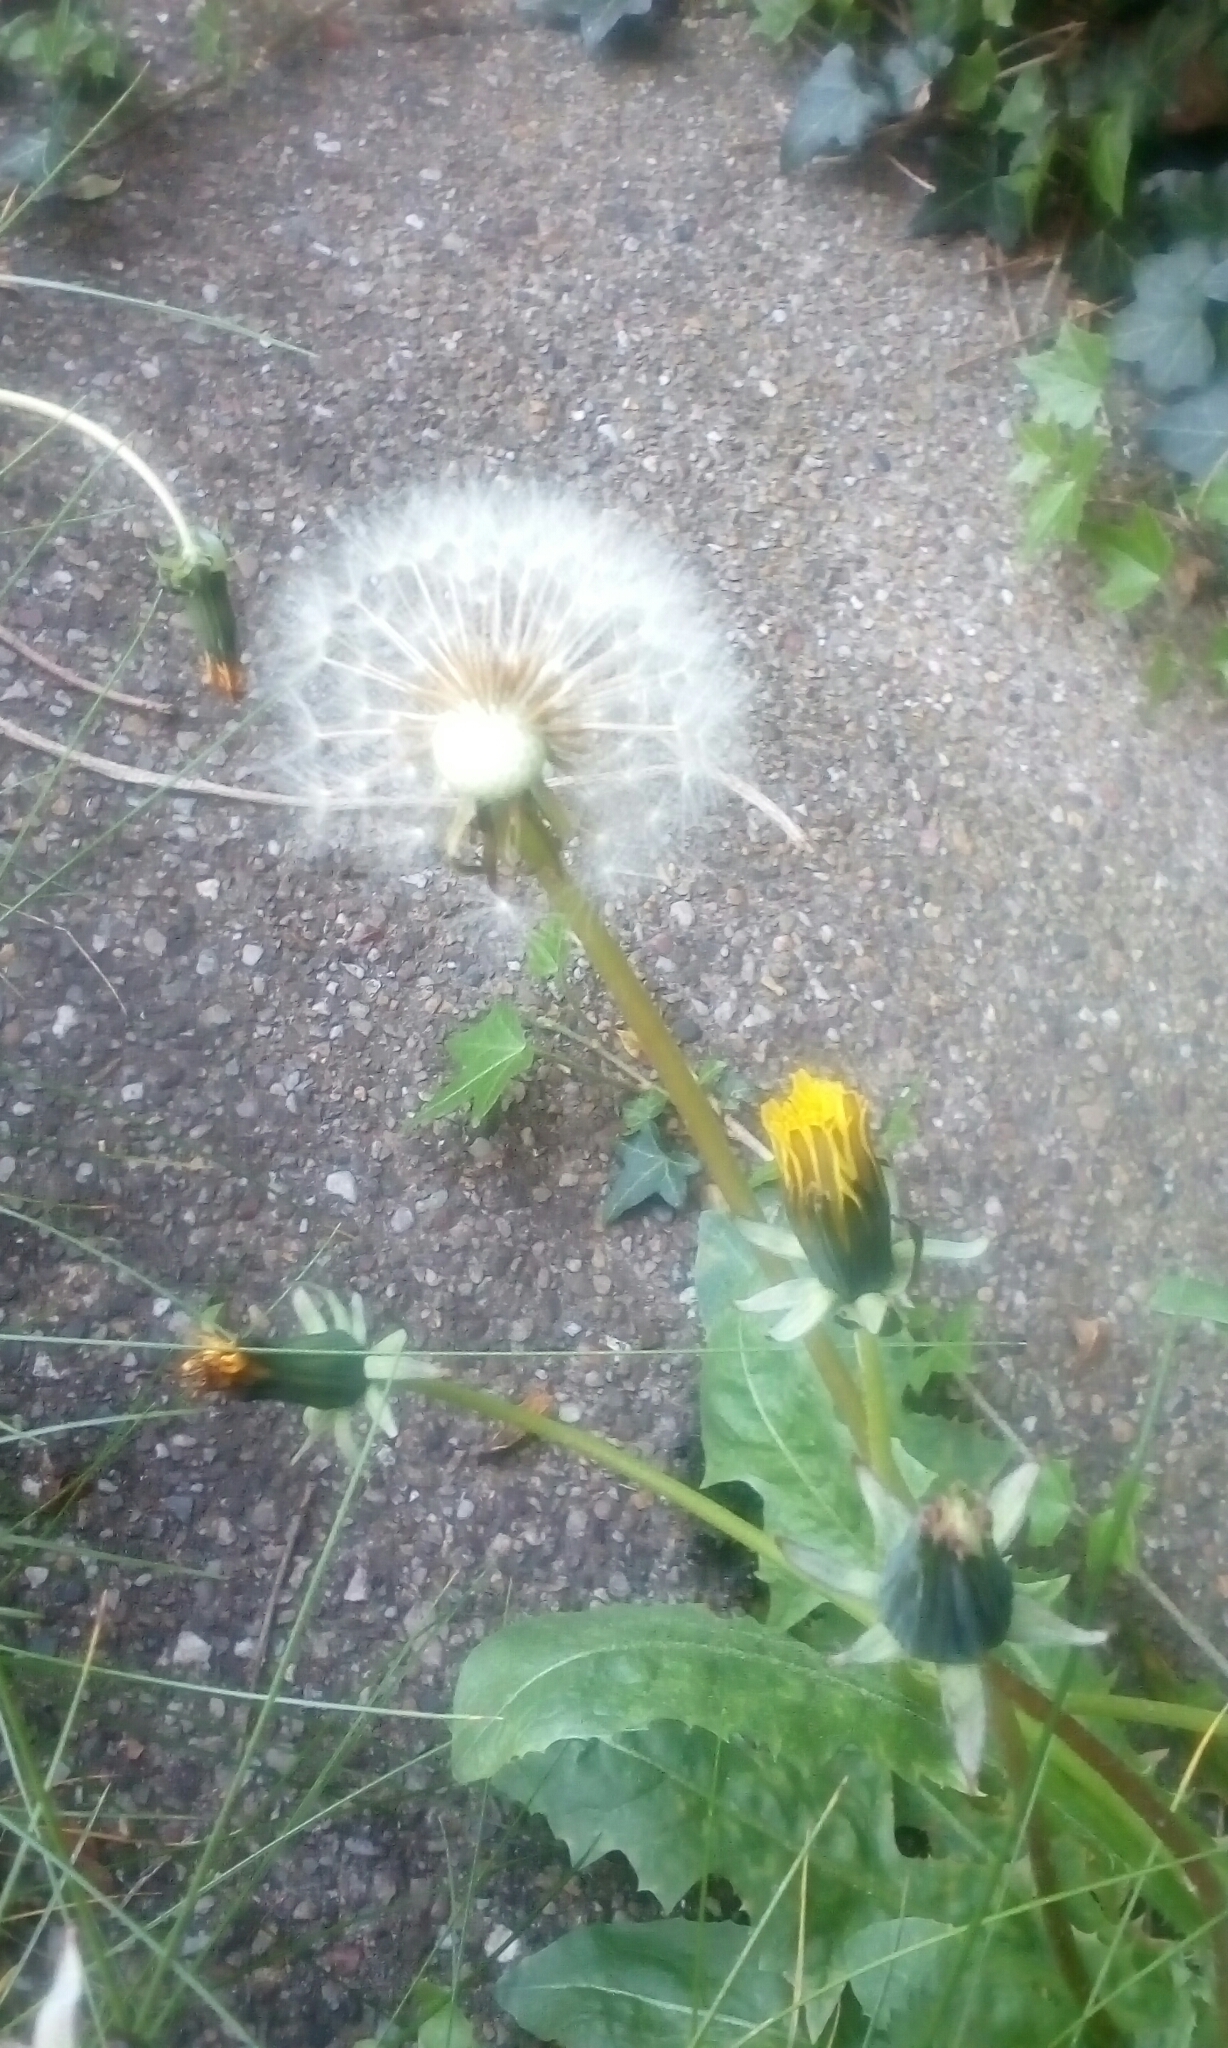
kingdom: Plantae
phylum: Tracheophyta
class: Magnoliopsida
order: Asterales
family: Asteraceae
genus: Taraxacum
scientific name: Taraxacum officinale
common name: Common dandelion
